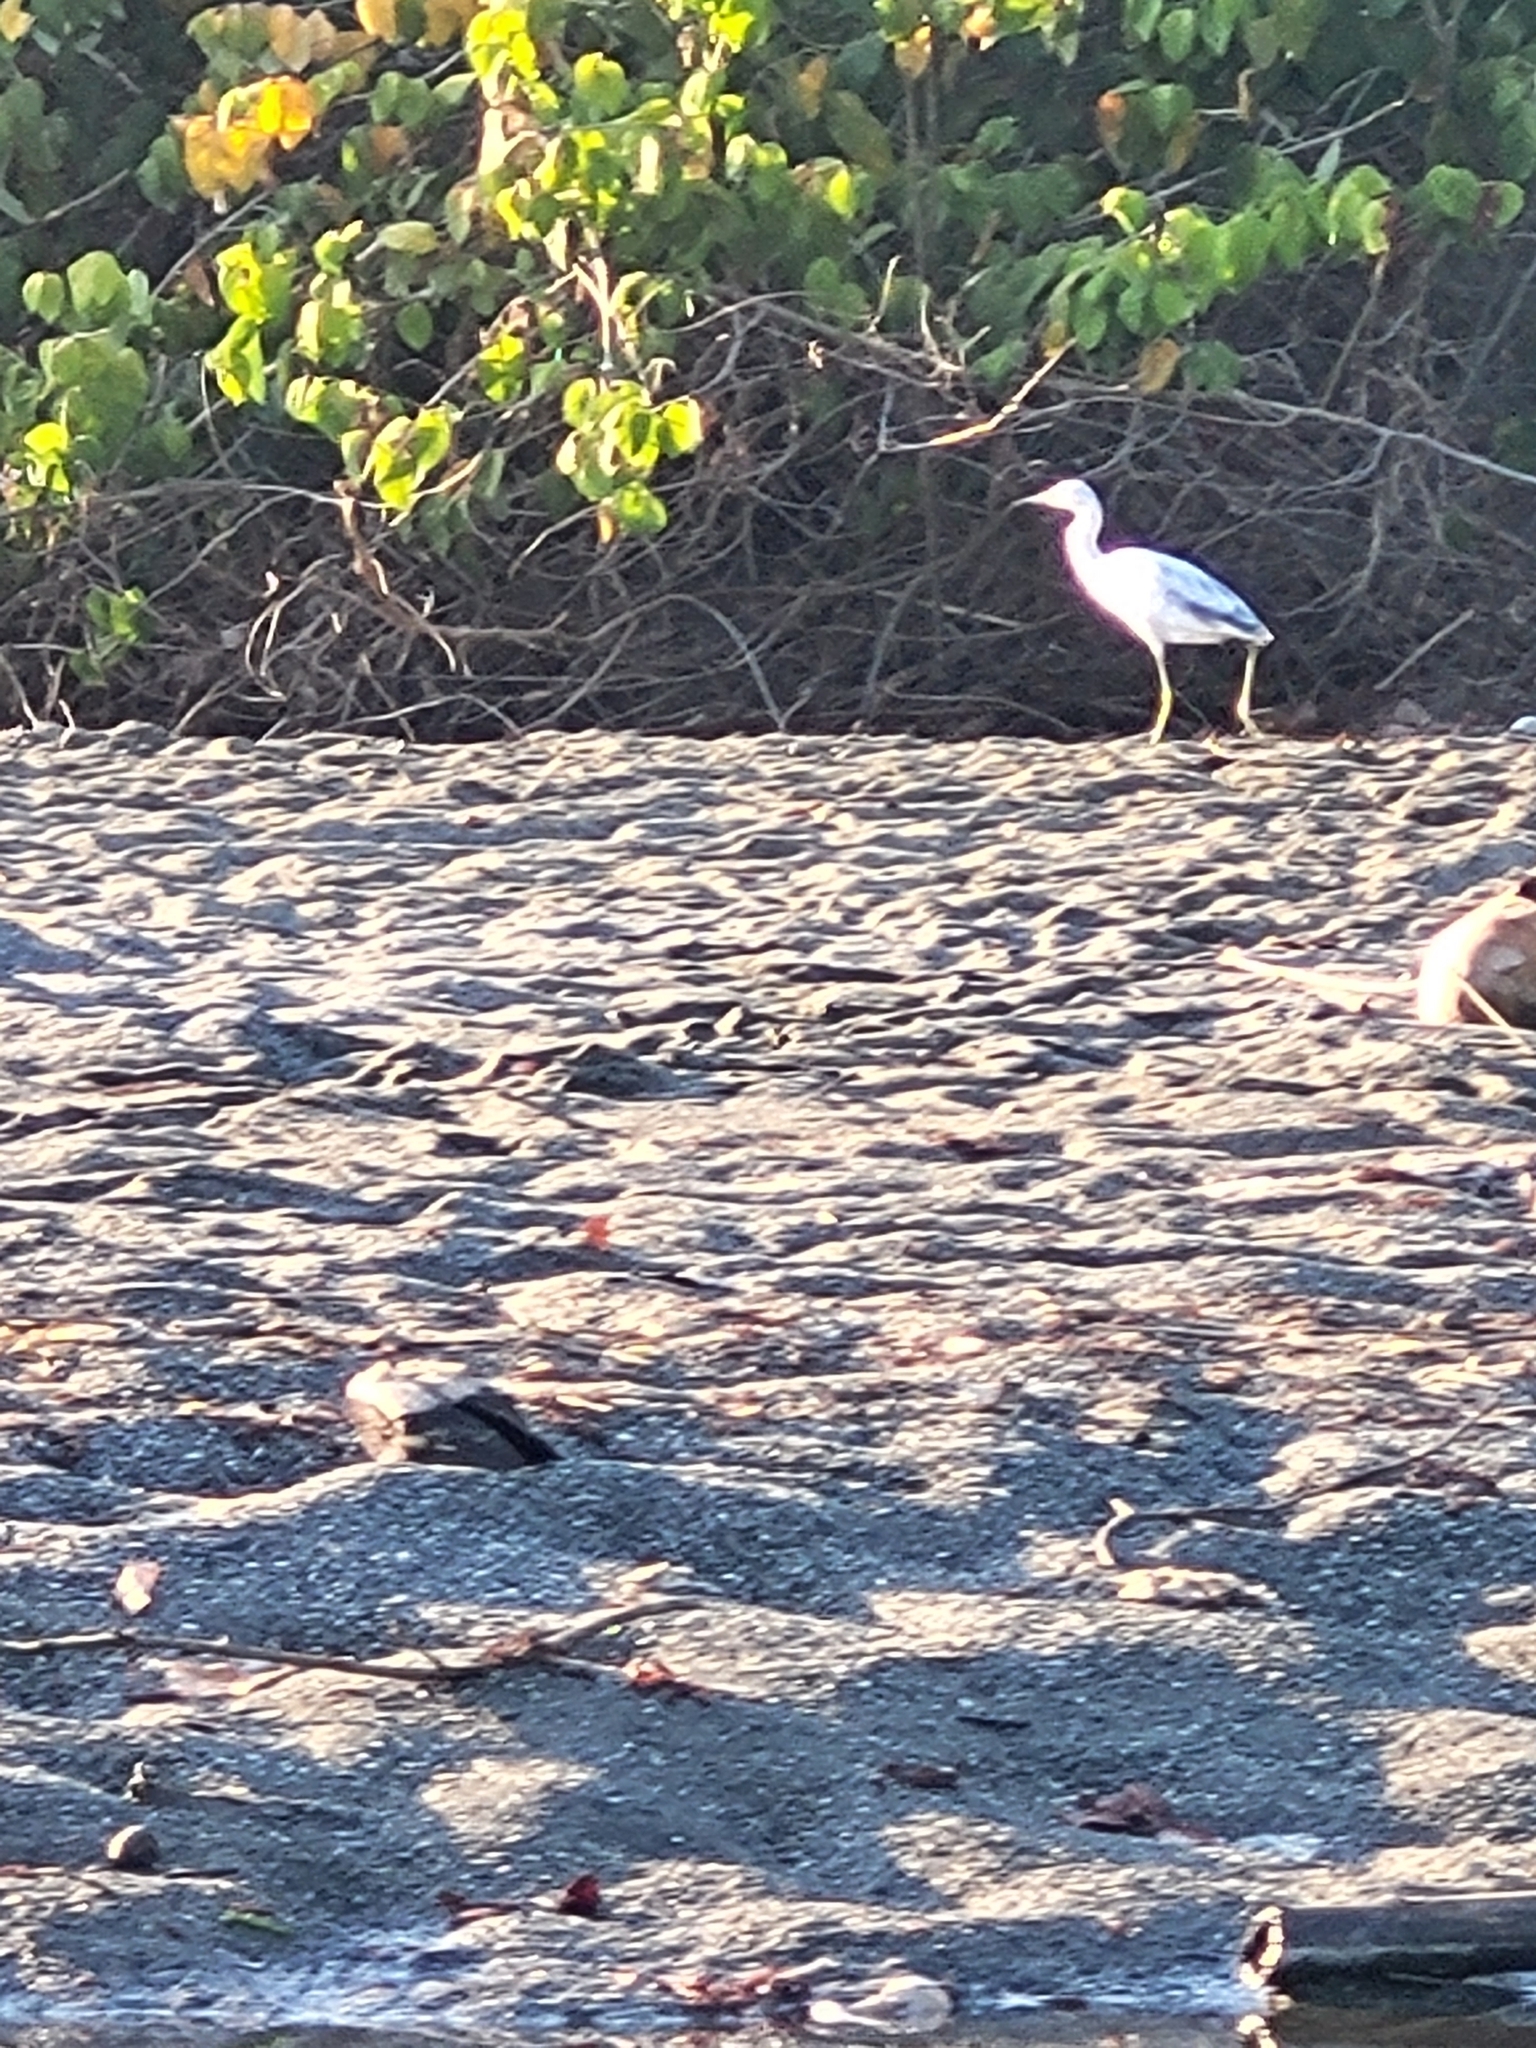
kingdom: Animalia
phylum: Chordata
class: Aves
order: Pelecaniformes
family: Ardeidae
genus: Egretta
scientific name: Egretta caerulea
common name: Little blue heron
